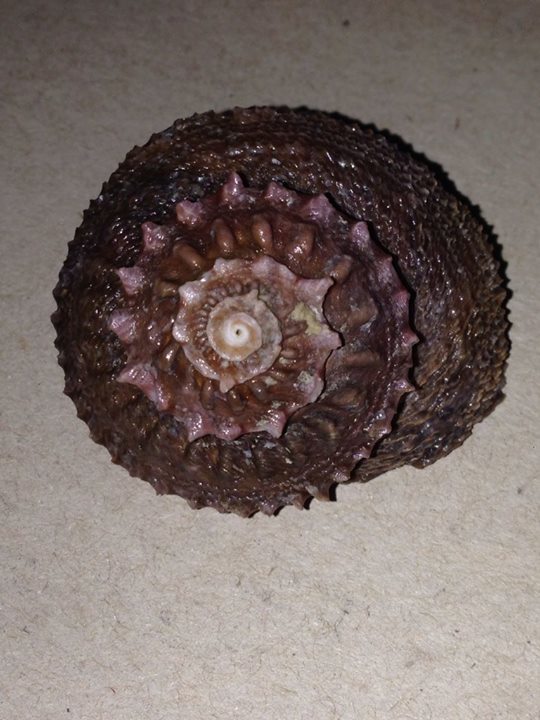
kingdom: Animalia
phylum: Mollusca
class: Gastropoda
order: Trochida
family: Turbinidae
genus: Bolma
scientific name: Bolma rugosa
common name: Rough star shell
